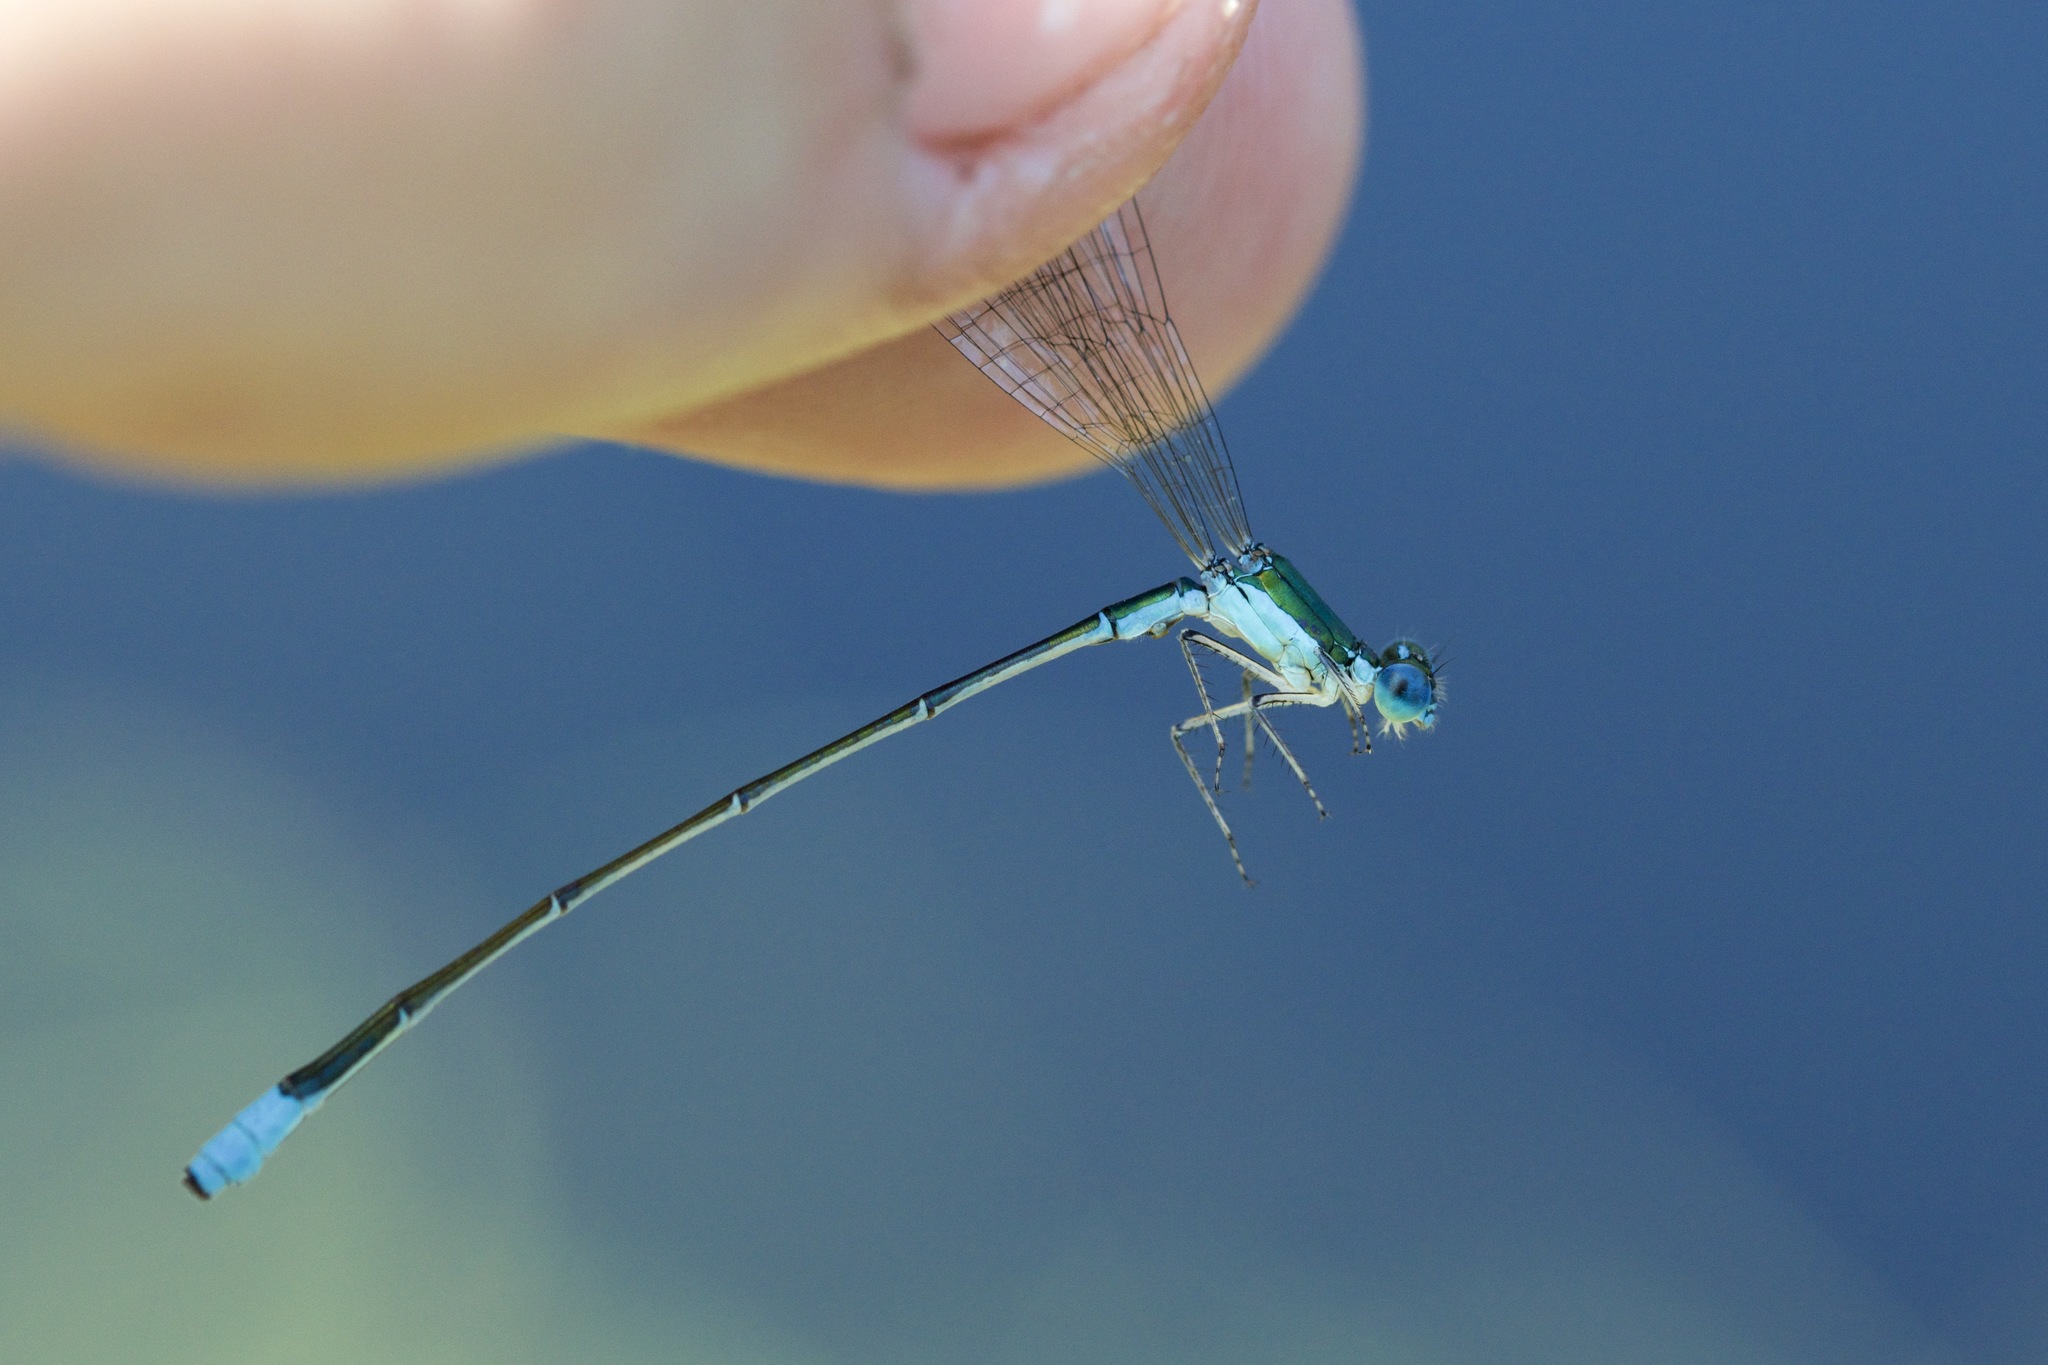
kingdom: Animalia
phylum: Arthropoda
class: Insecta
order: Odonata
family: Coenagrionidae
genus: Nehalennia
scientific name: Nehalennia gracilis
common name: Sphagnum sprite
